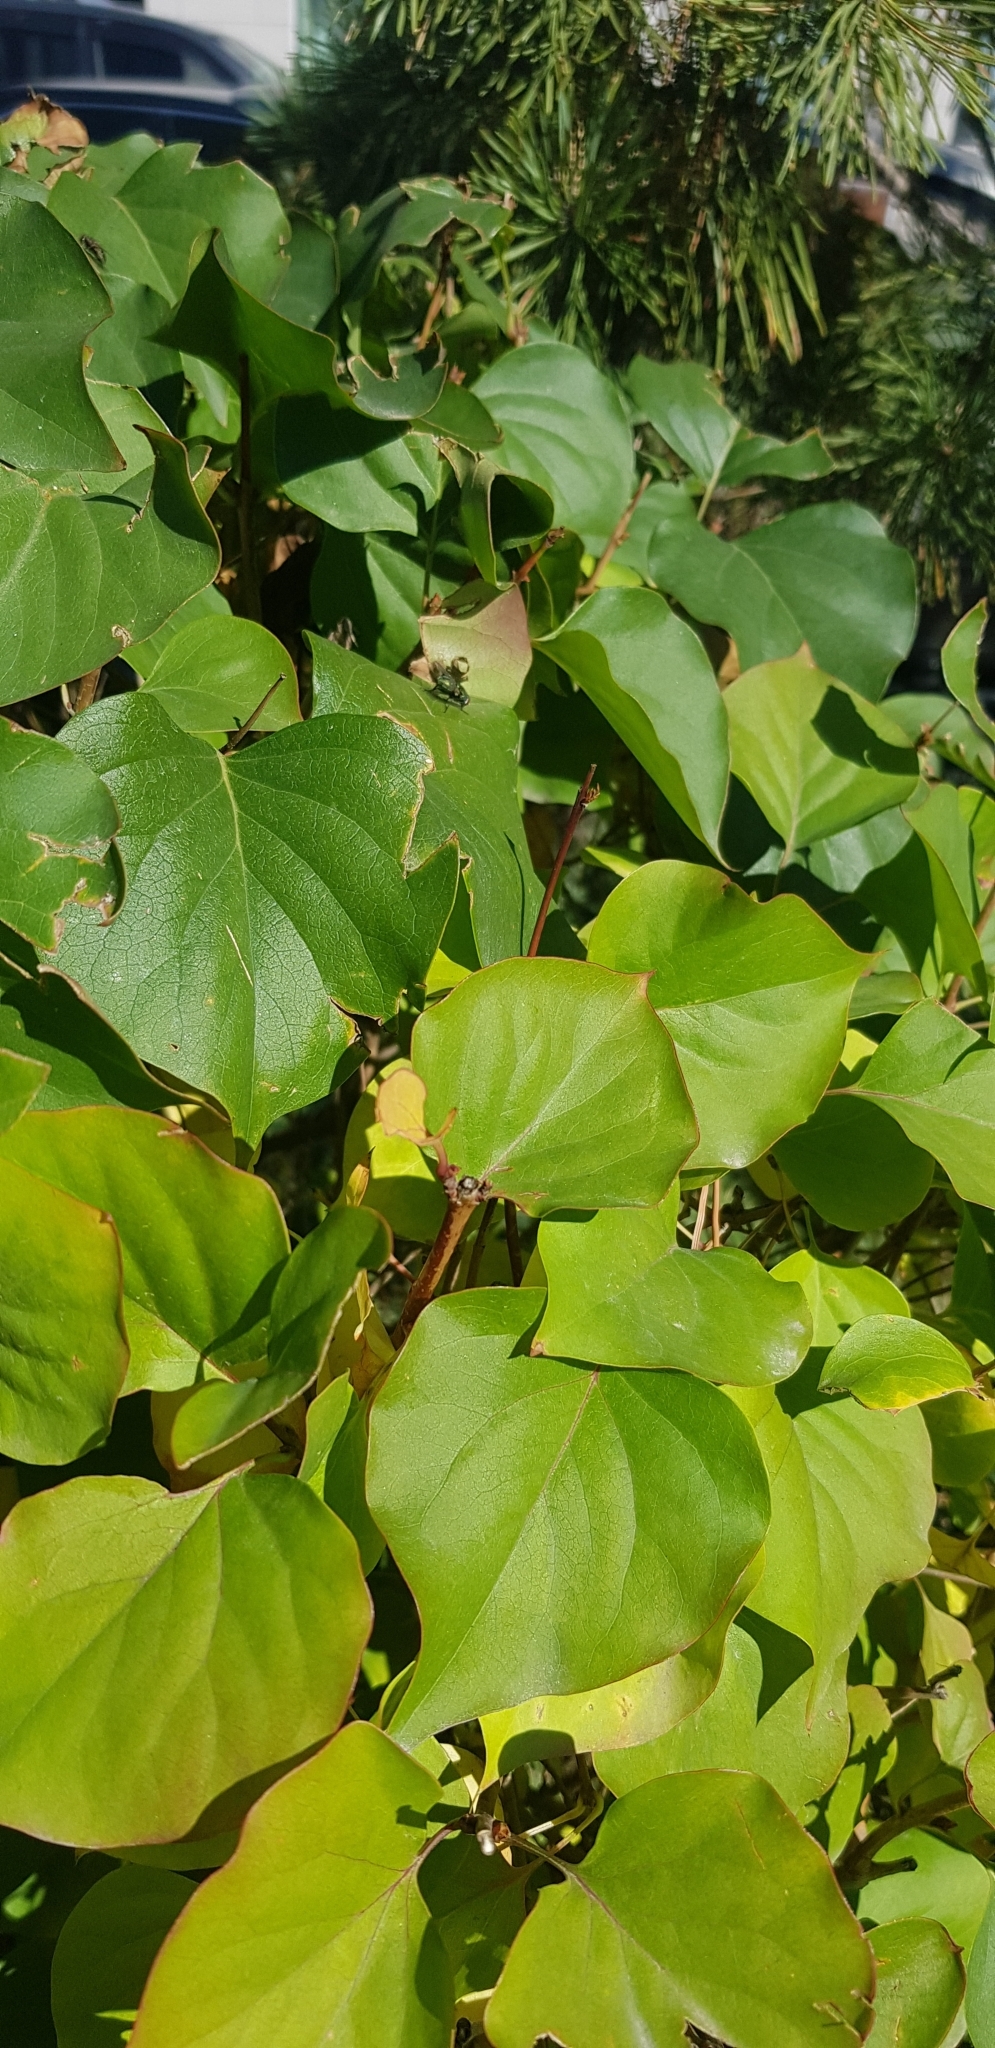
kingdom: Plantae
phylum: Tracheophyta
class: Magnoliopsida
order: Rosales
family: Rosaceae
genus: Prunus
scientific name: Prunus armeniaca
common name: Apricot
